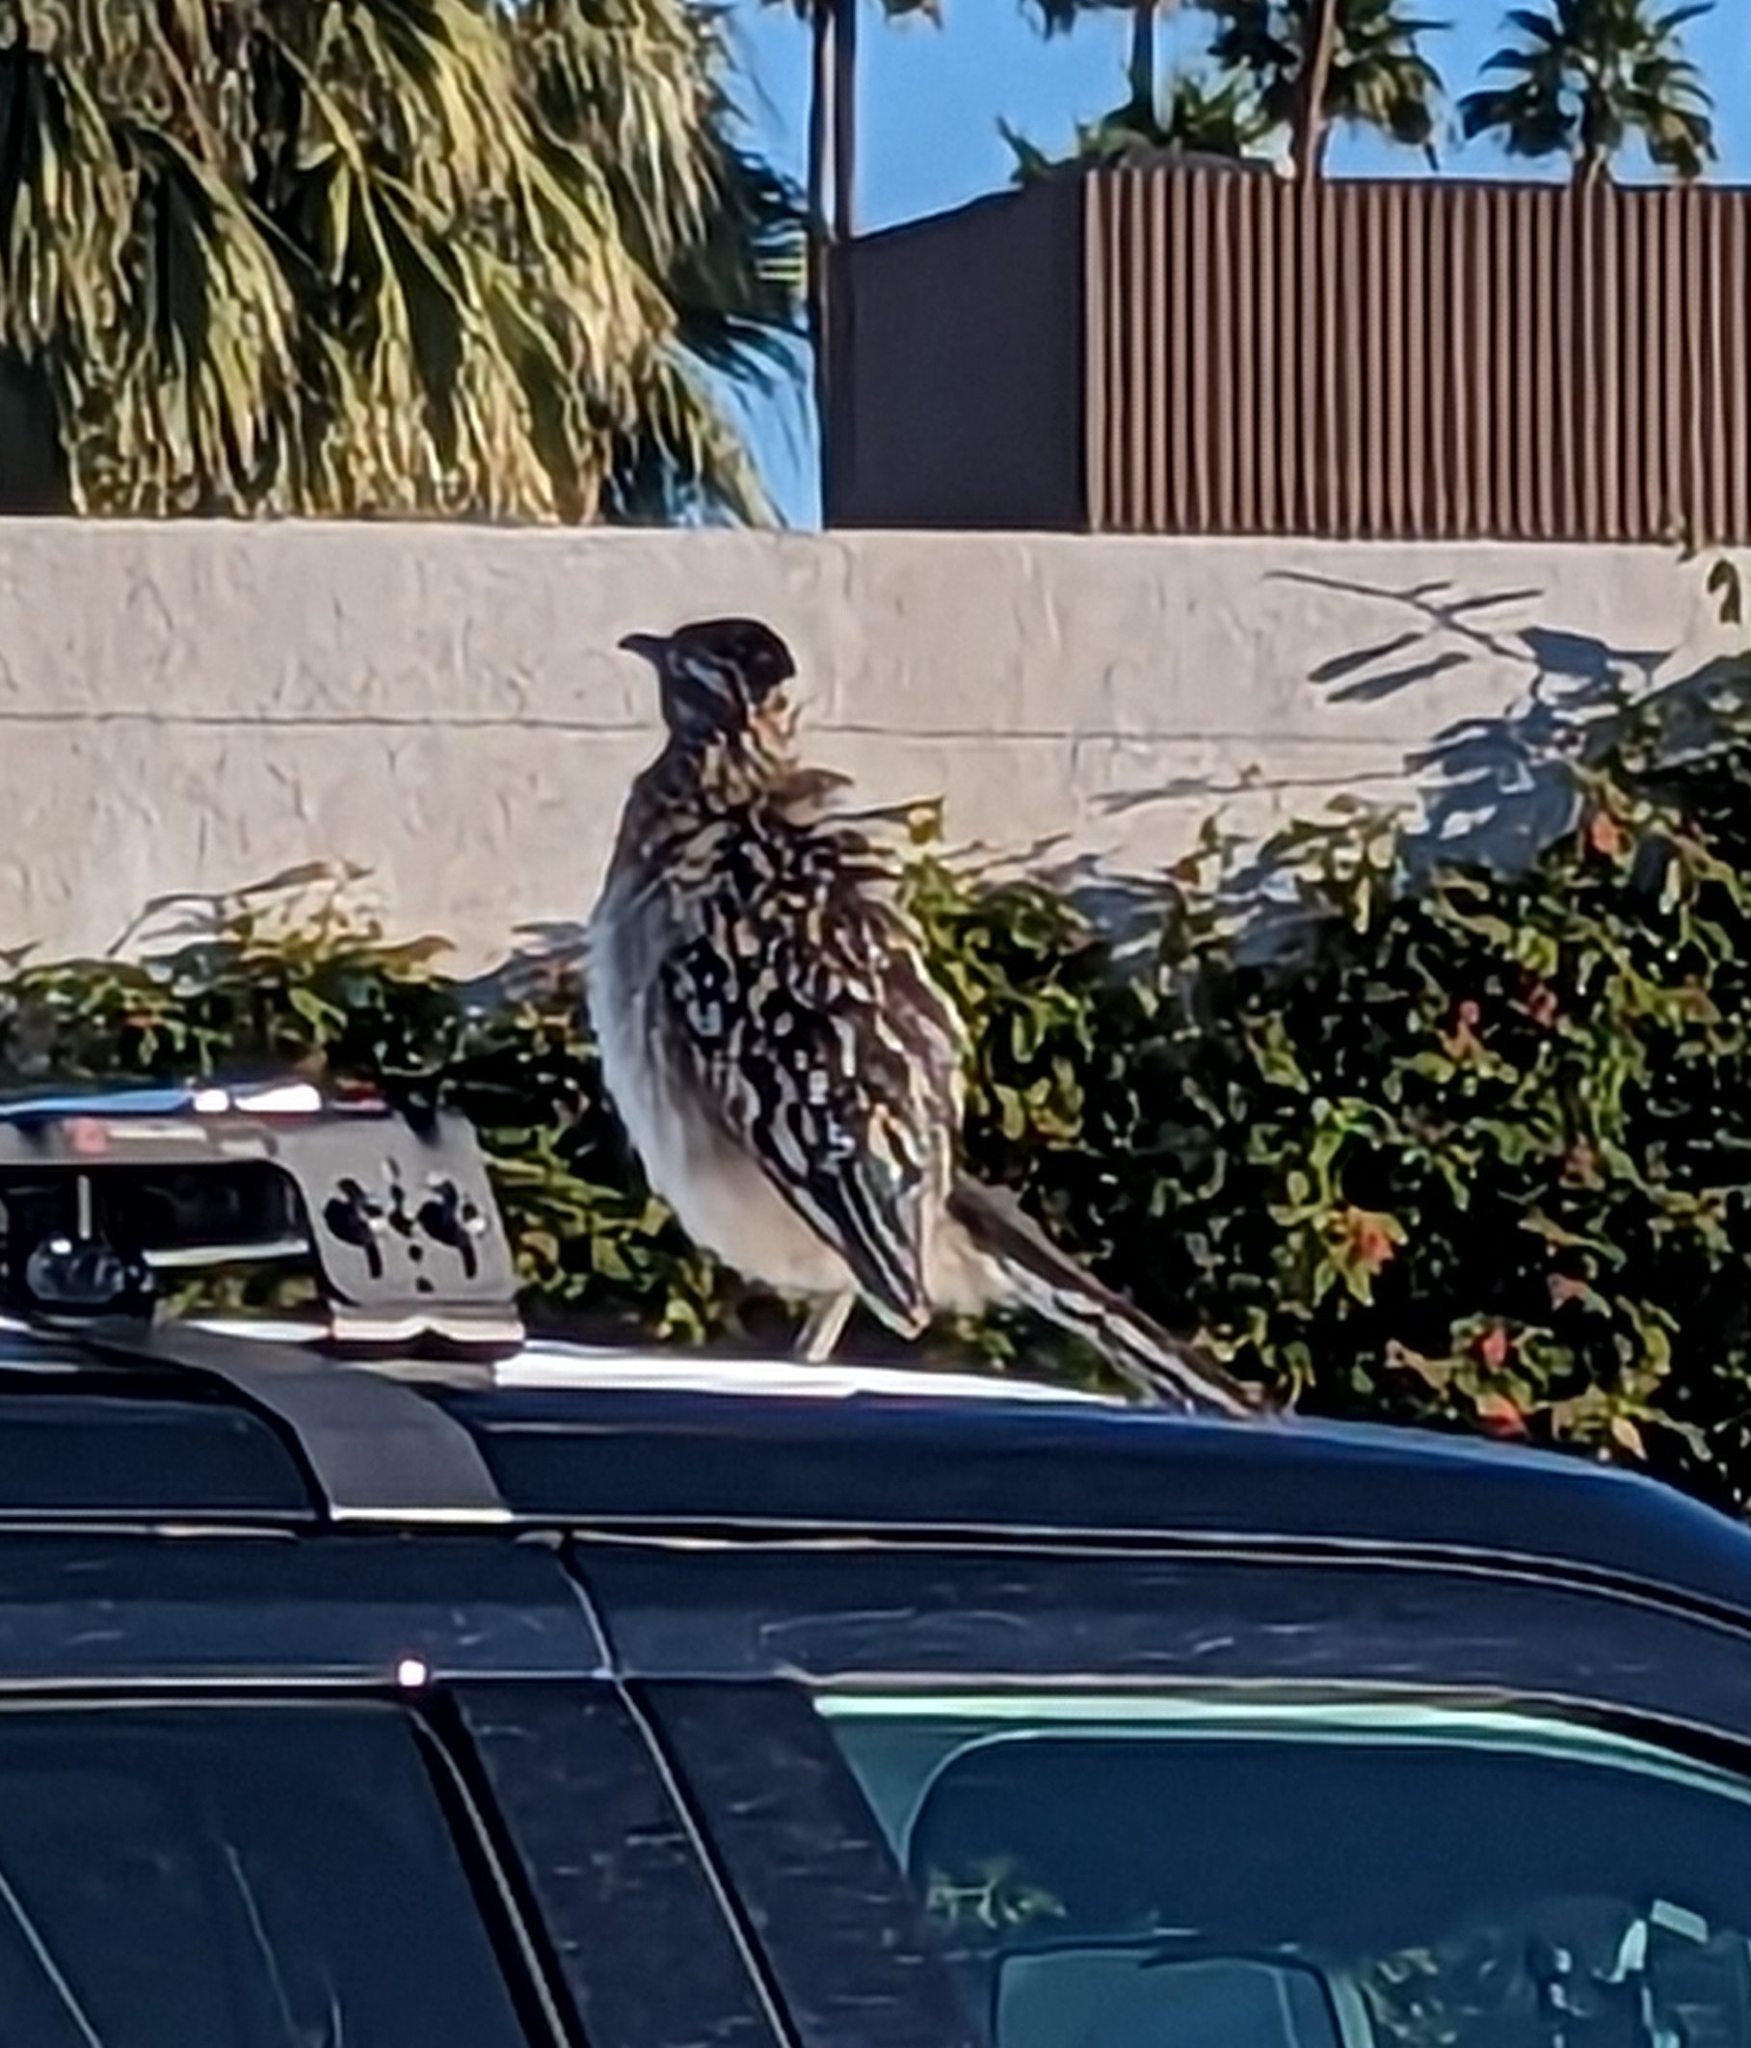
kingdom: Animalia
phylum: Chordata
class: Aves
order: Cuculiformes
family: Cuculidae
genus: Geococcyx
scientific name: Geococcyx californianus
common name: Greater roadrunner
